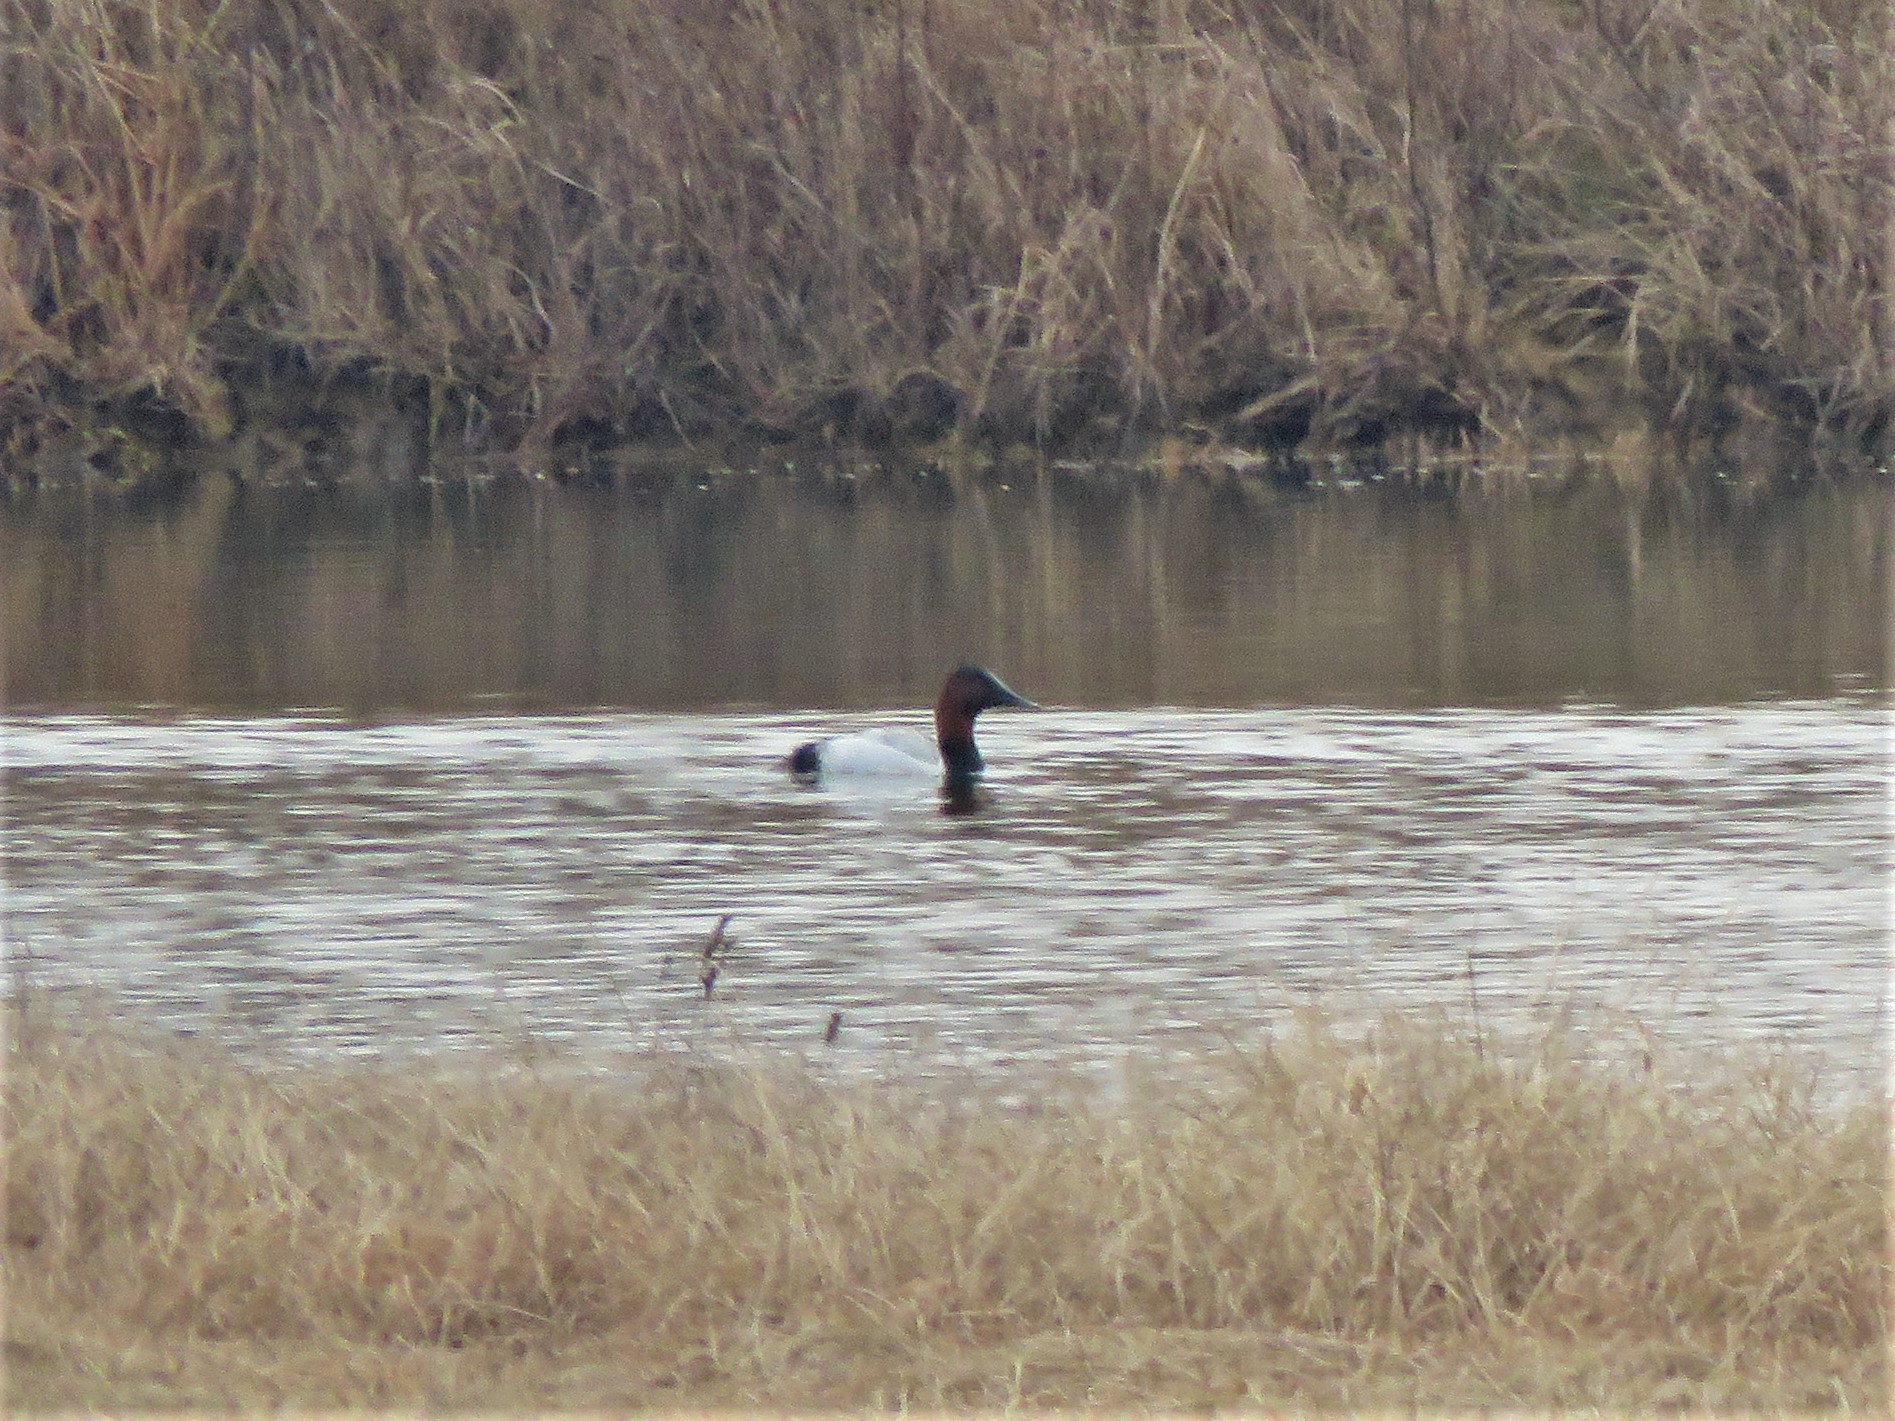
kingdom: Animalia
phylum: Chordata
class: Aves
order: Anseriformes
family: Anatidae
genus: Aythya
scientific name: Aythya valisineria
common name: Canvasback
